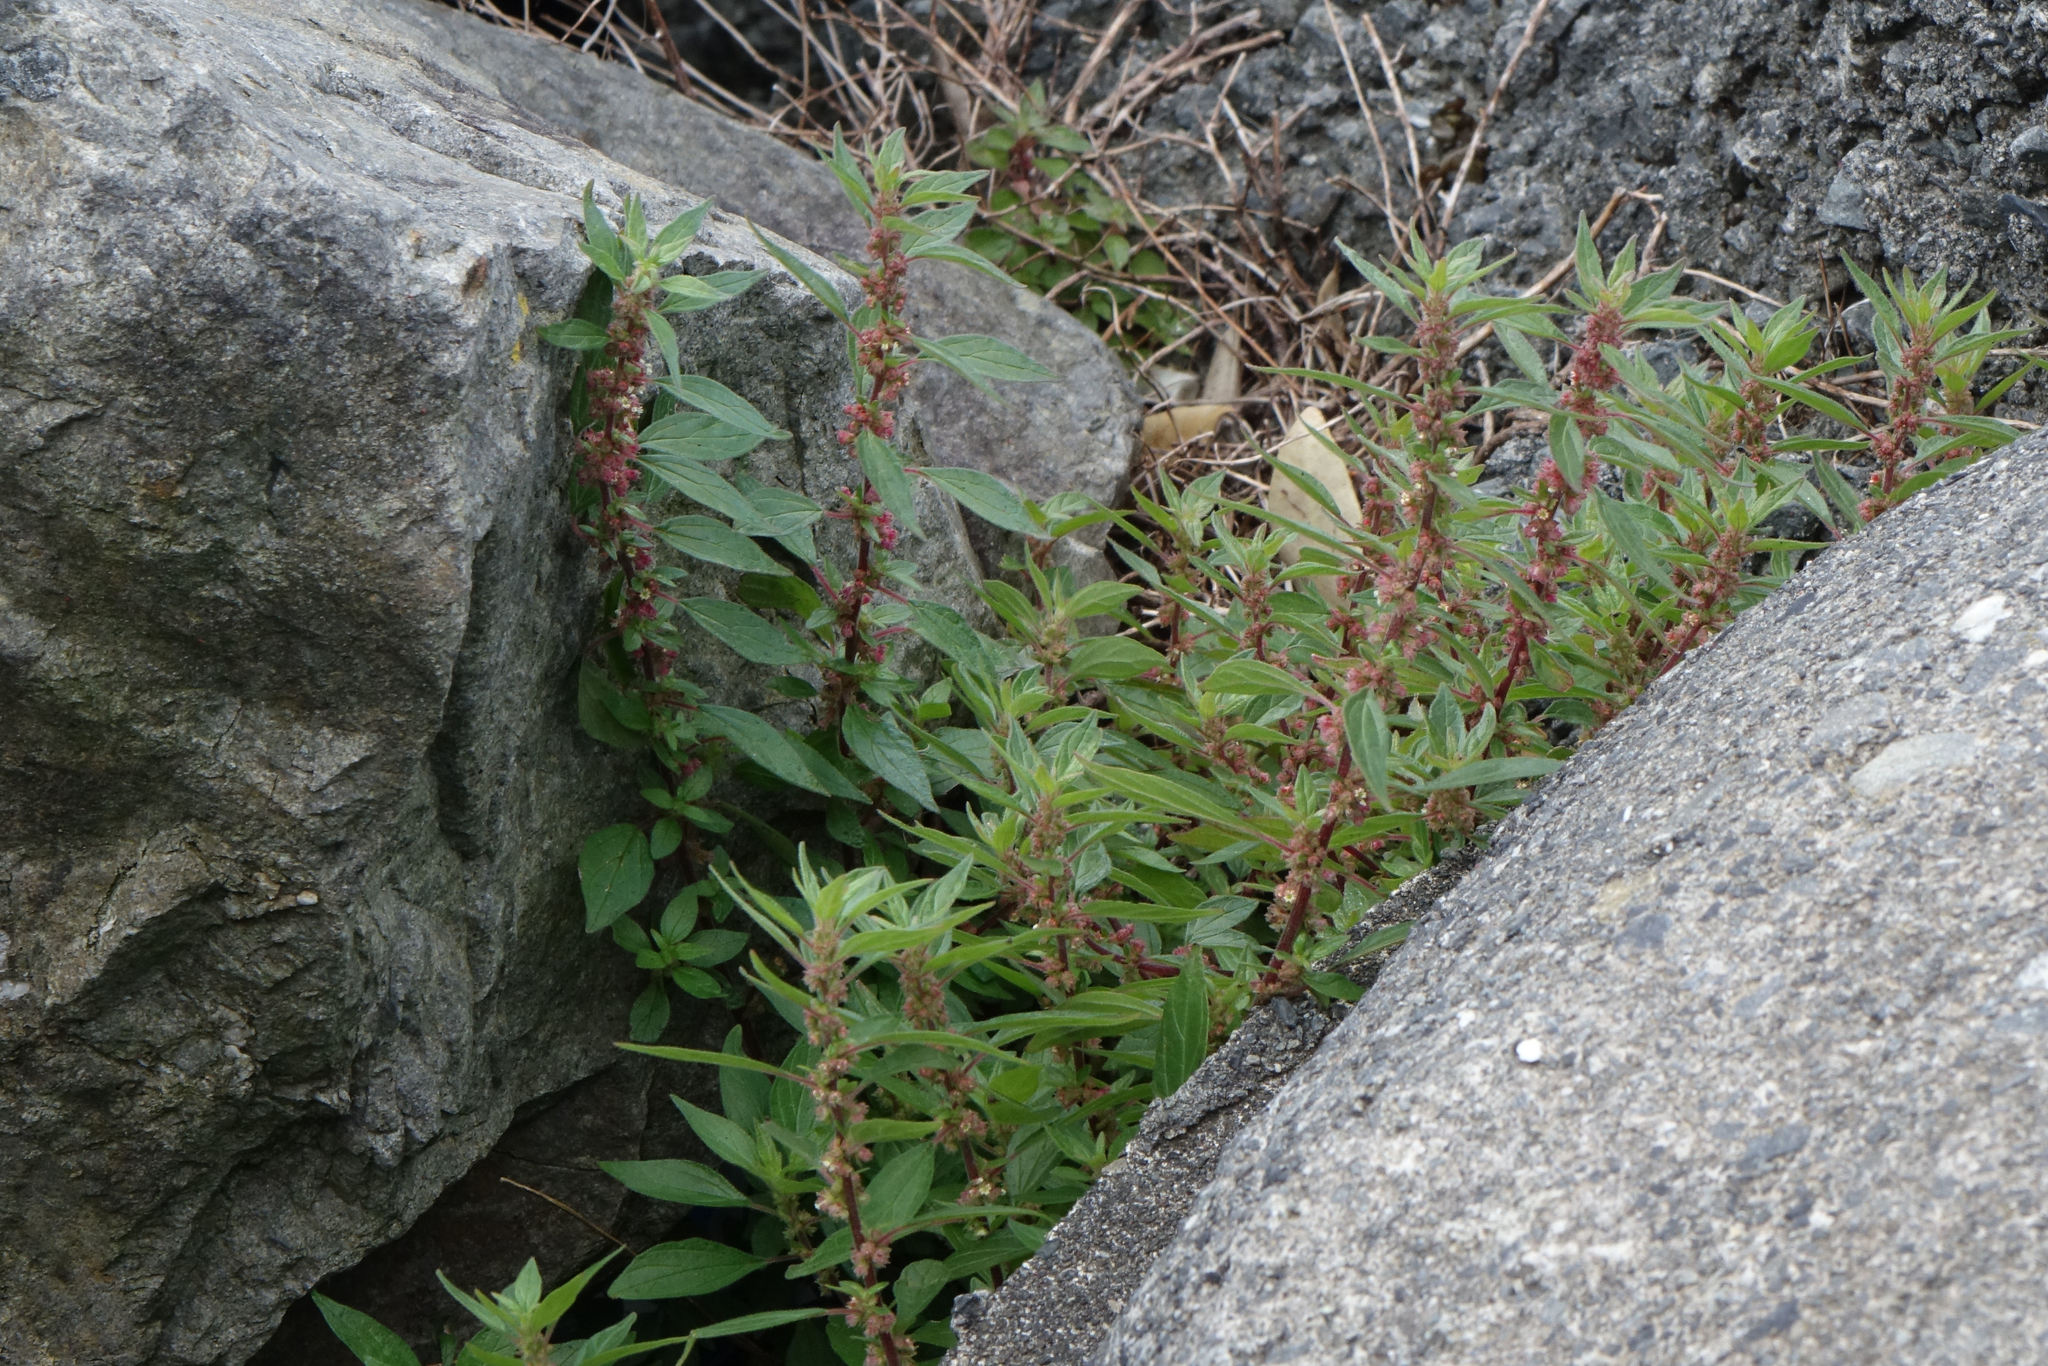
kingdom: Plantae
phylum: Tracheophyta
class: Magnoliopsida
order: Rosales
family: Urticaceae
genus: Parietaria
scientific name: Parietaria judaica
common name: Pellitory-of-the-wall
